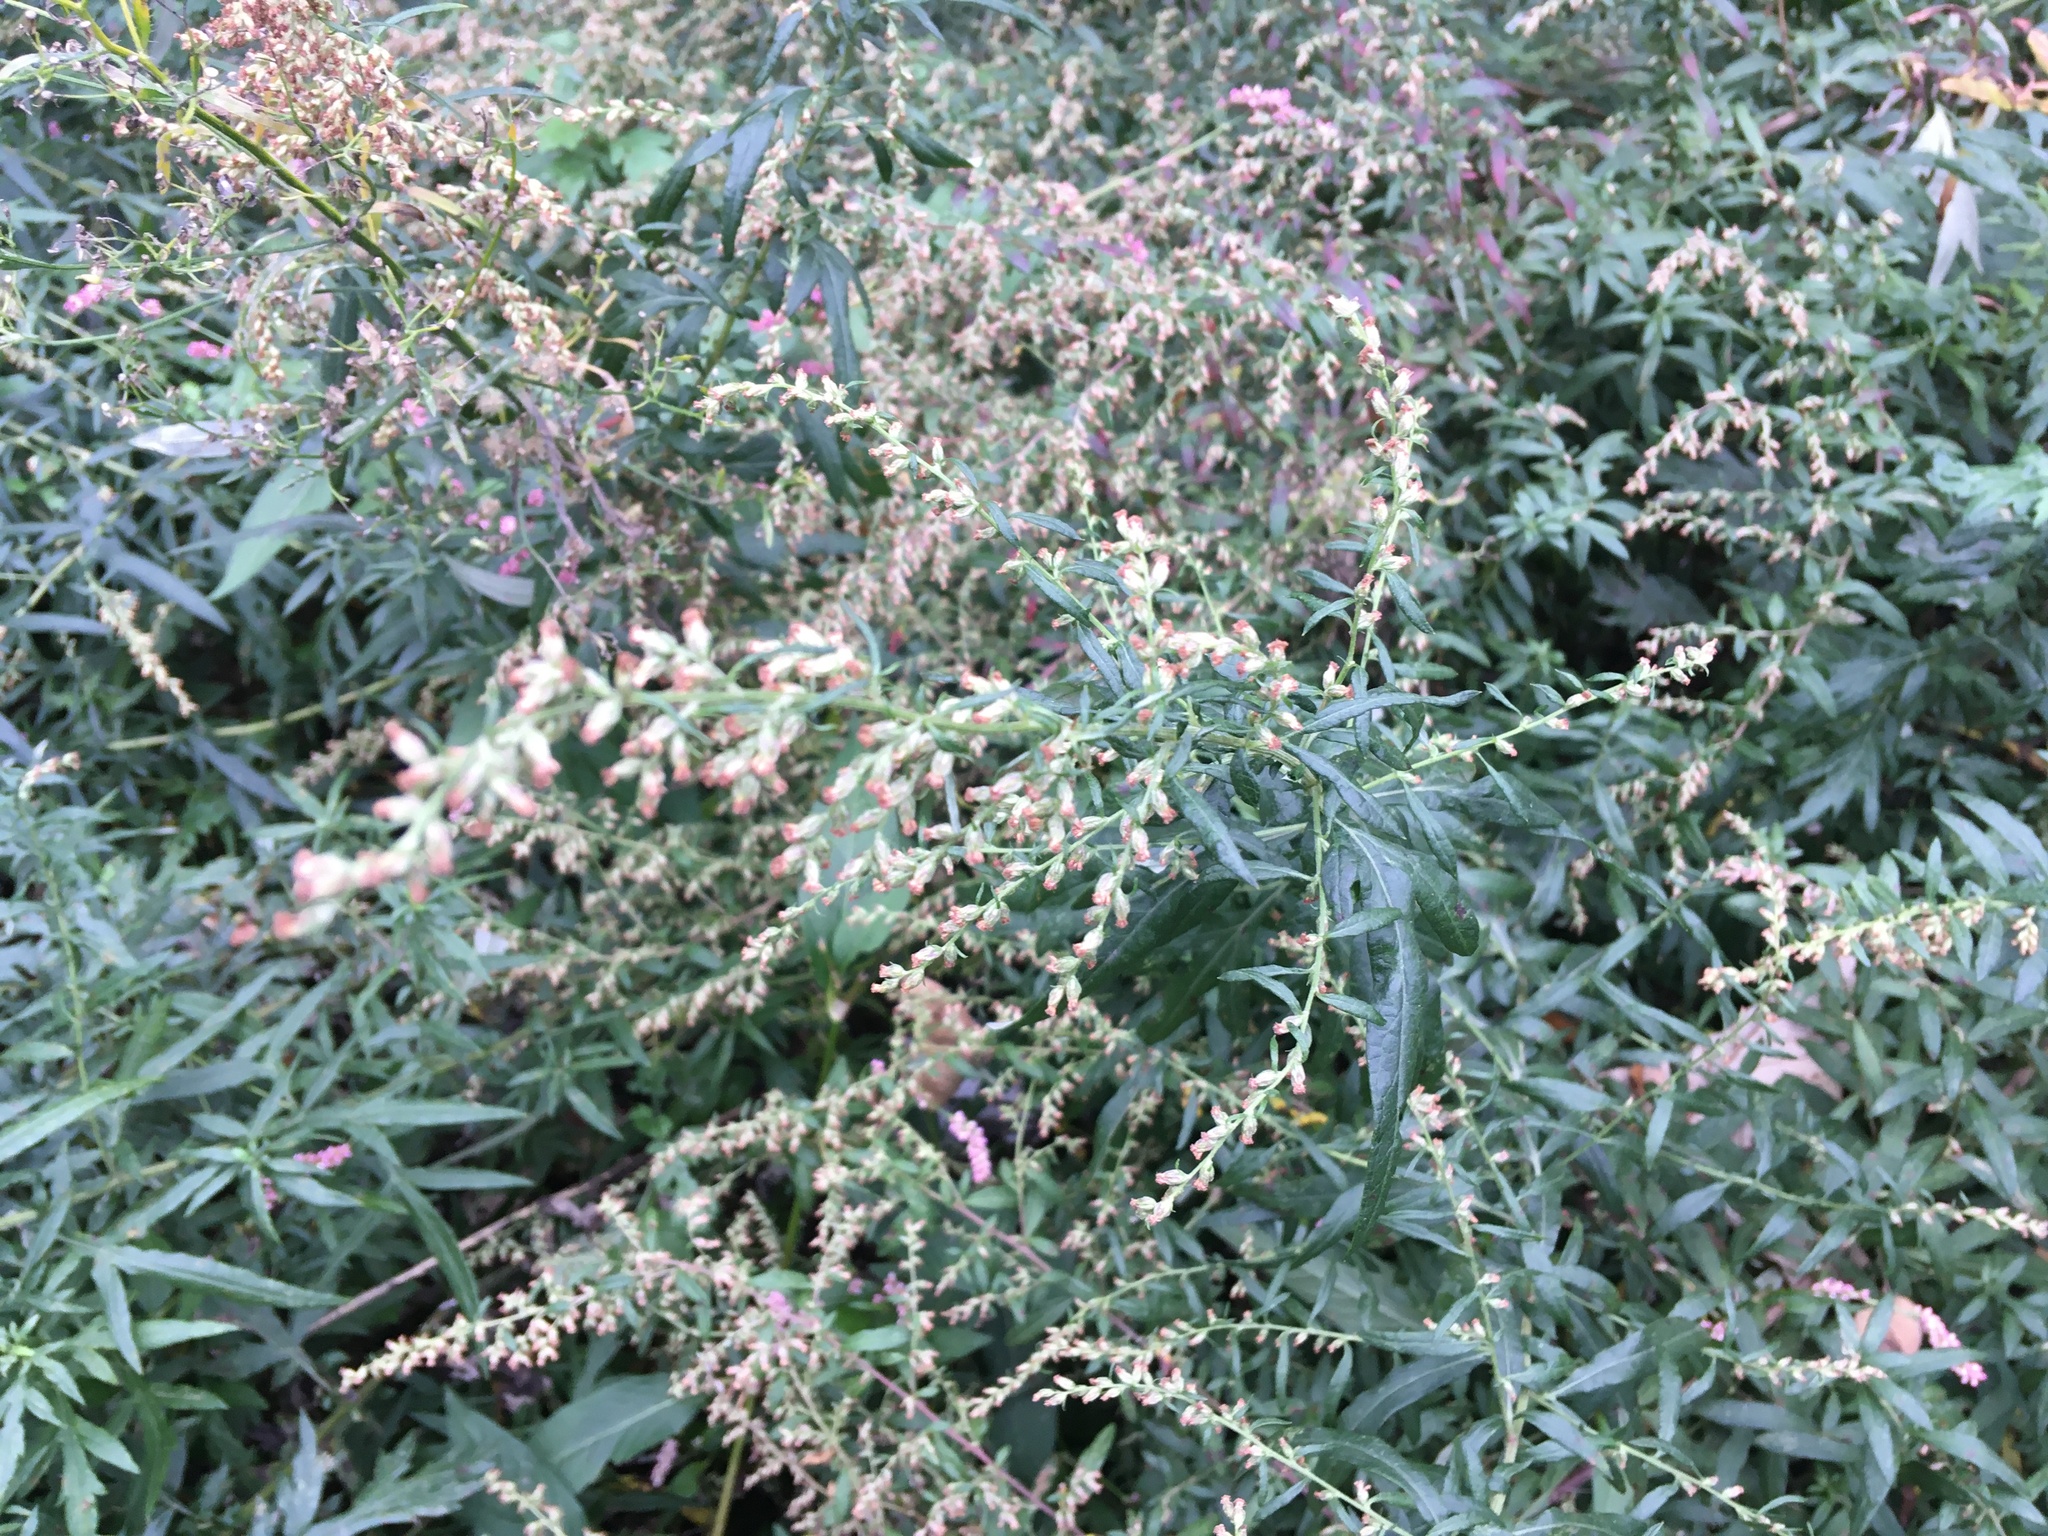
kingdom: Plantae
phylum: Tracheophyta
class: Magnoliopsida
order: Asterales
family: Asteraceae
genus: Artemisia
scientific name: Artemisia vulgaris
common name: Mugwort
